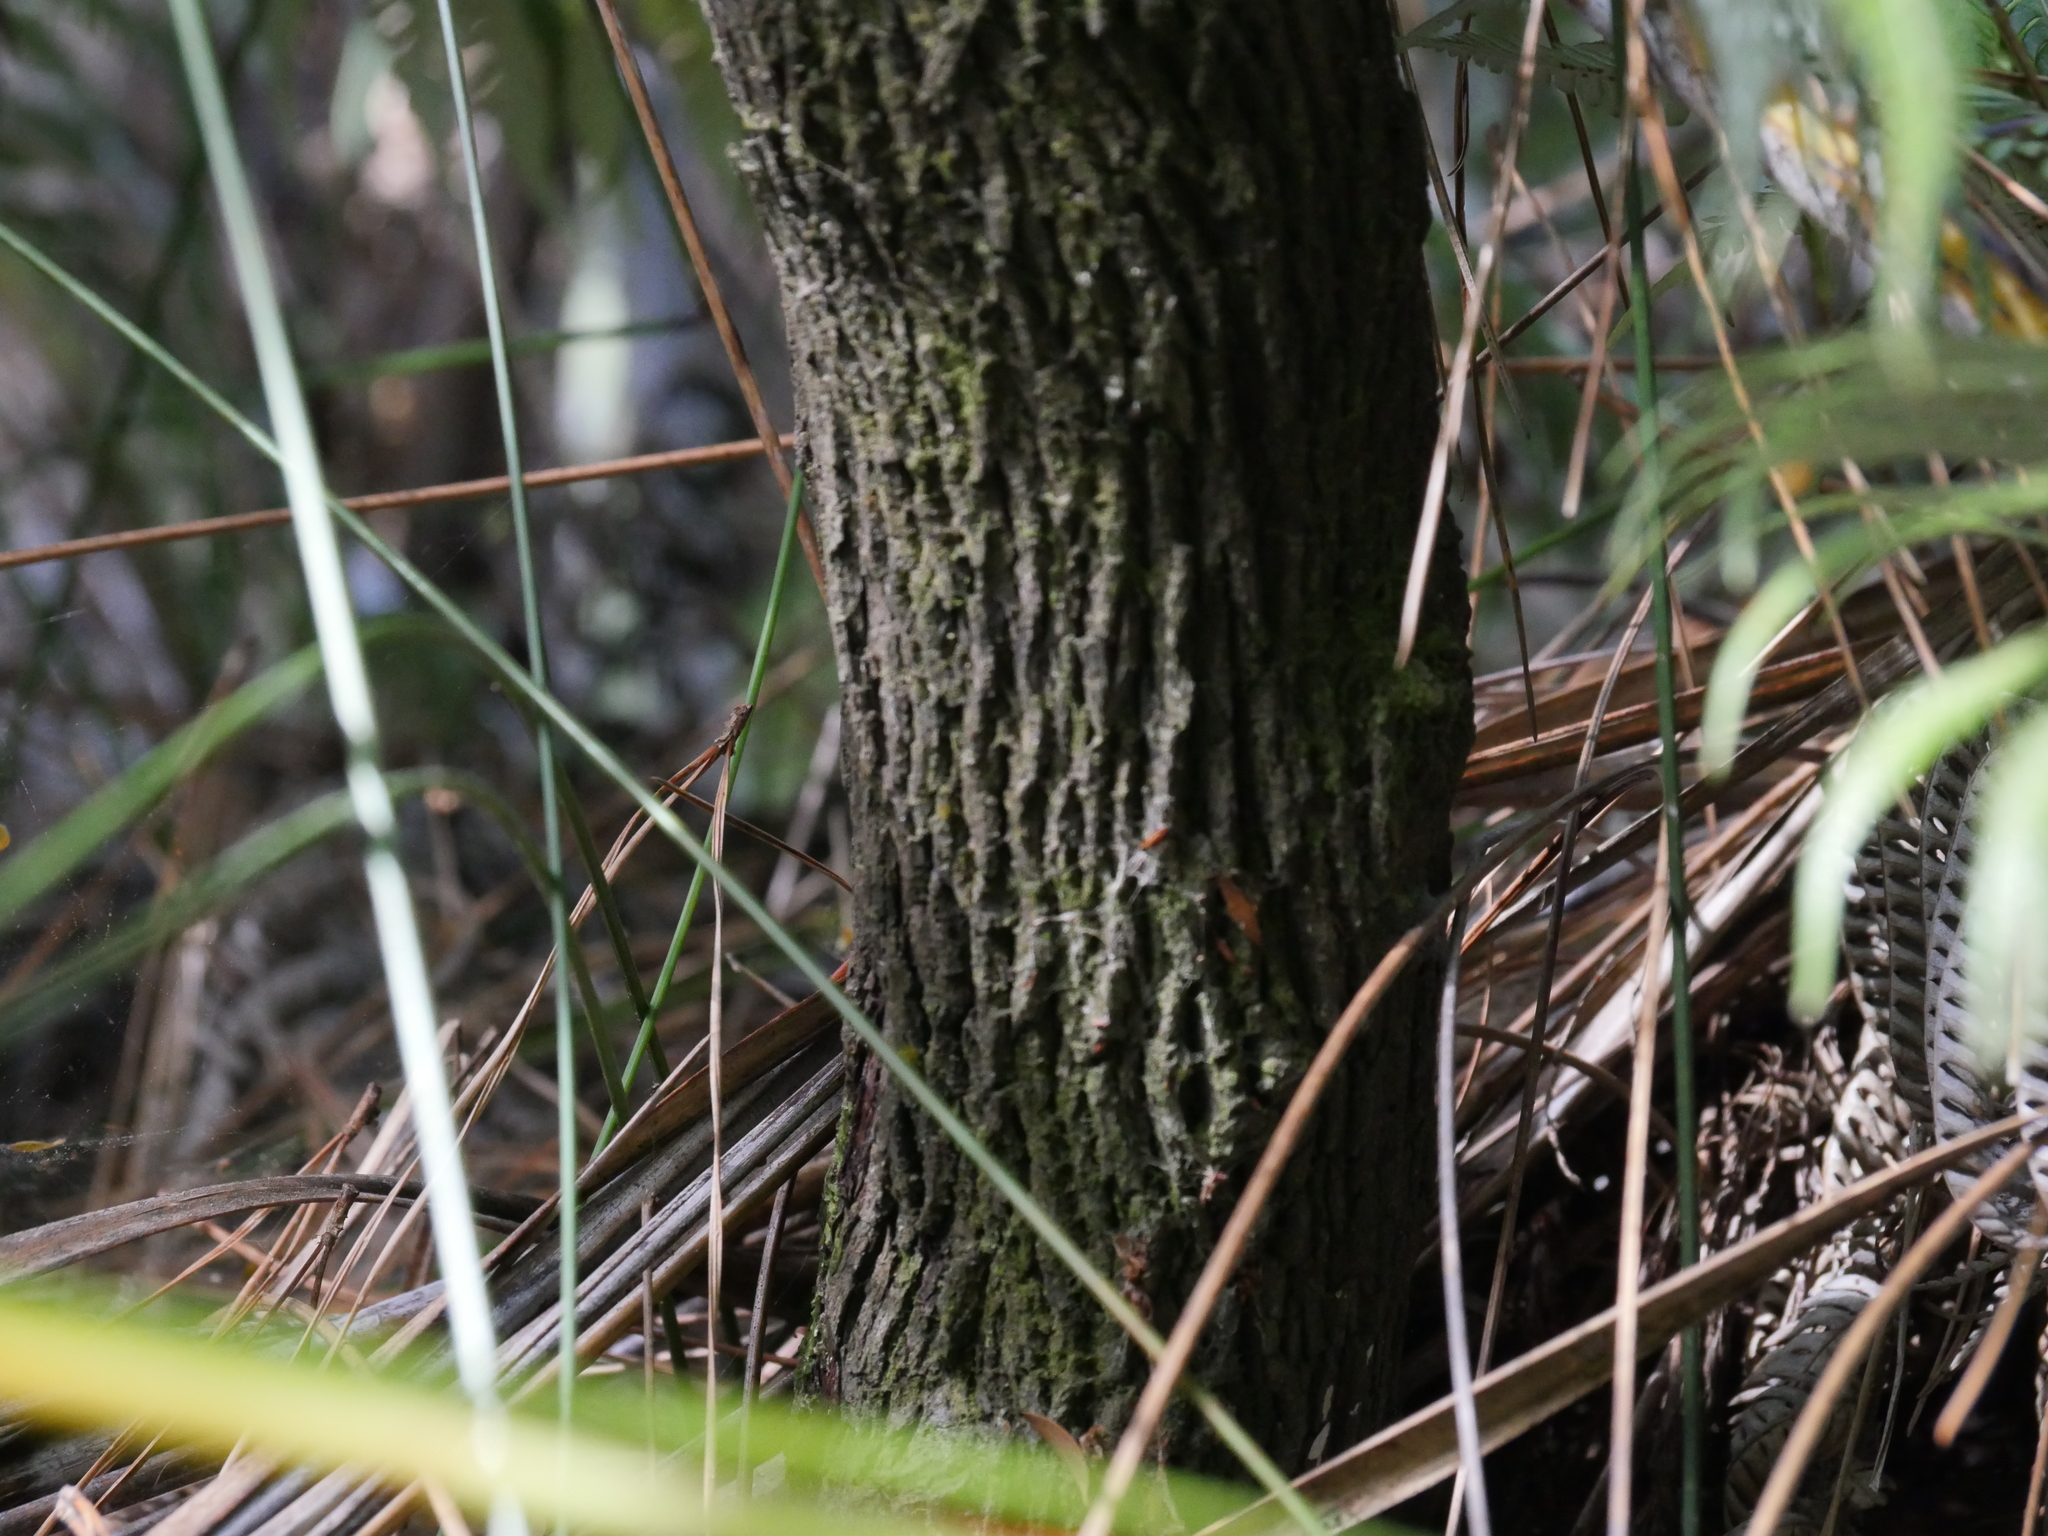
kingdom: Plantae
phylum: Tracheophyta
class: Magnoliopsida
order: Ericales
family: Ericaceae
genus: Leucopogon
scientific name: Leucopogon fasciculatus
